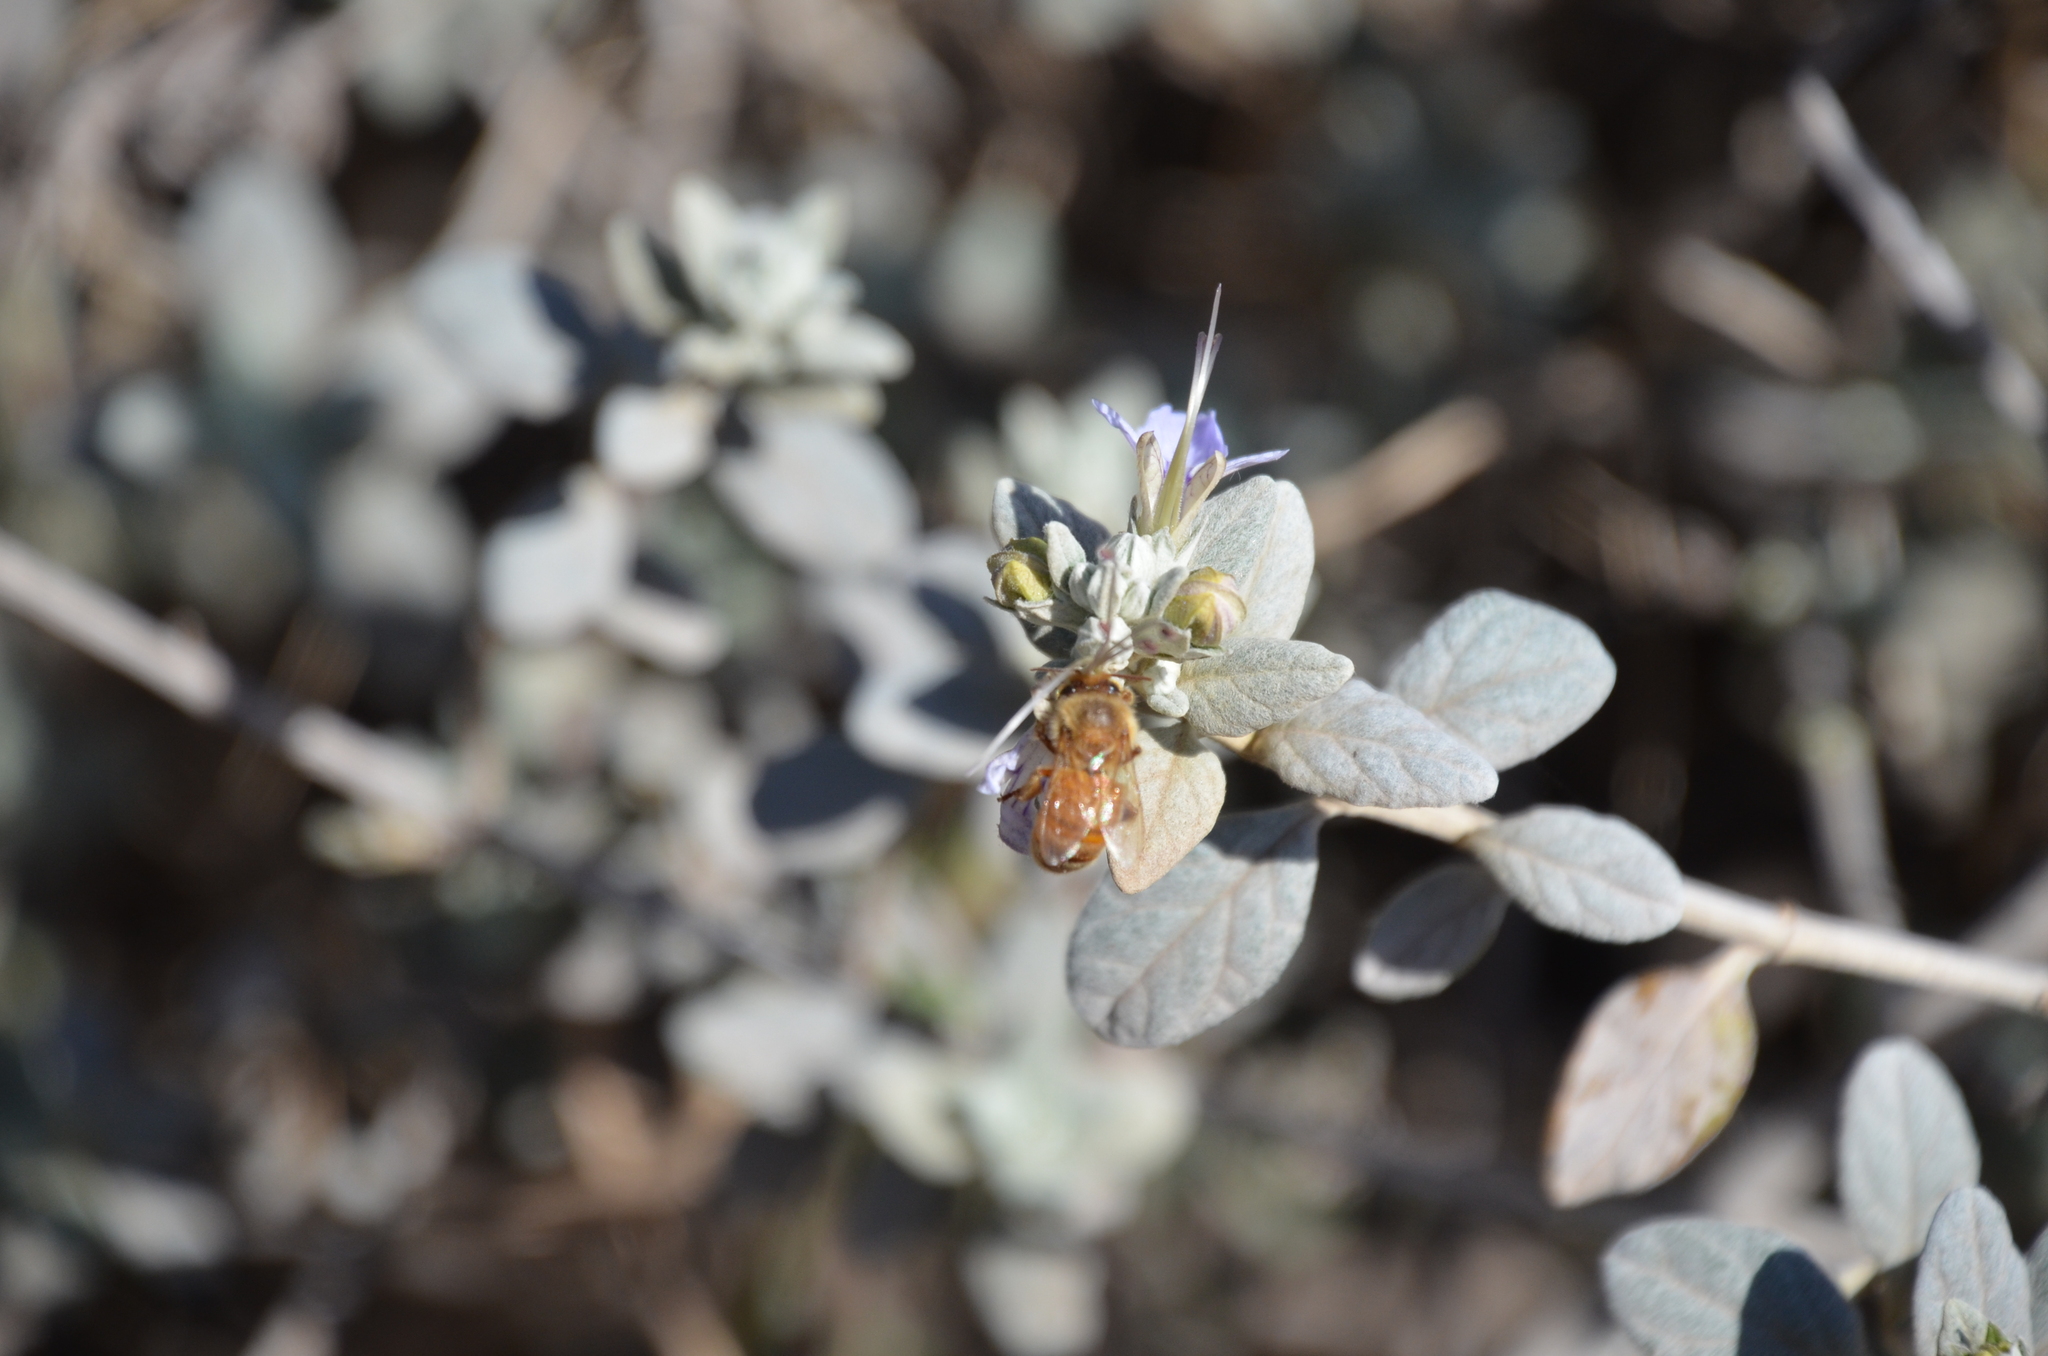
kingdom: Animalia
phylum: Arthropoda
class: Insecta
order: Hymenoptera
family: Apidae
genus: Apis
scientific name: Apis mellifera
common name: Honey bee
